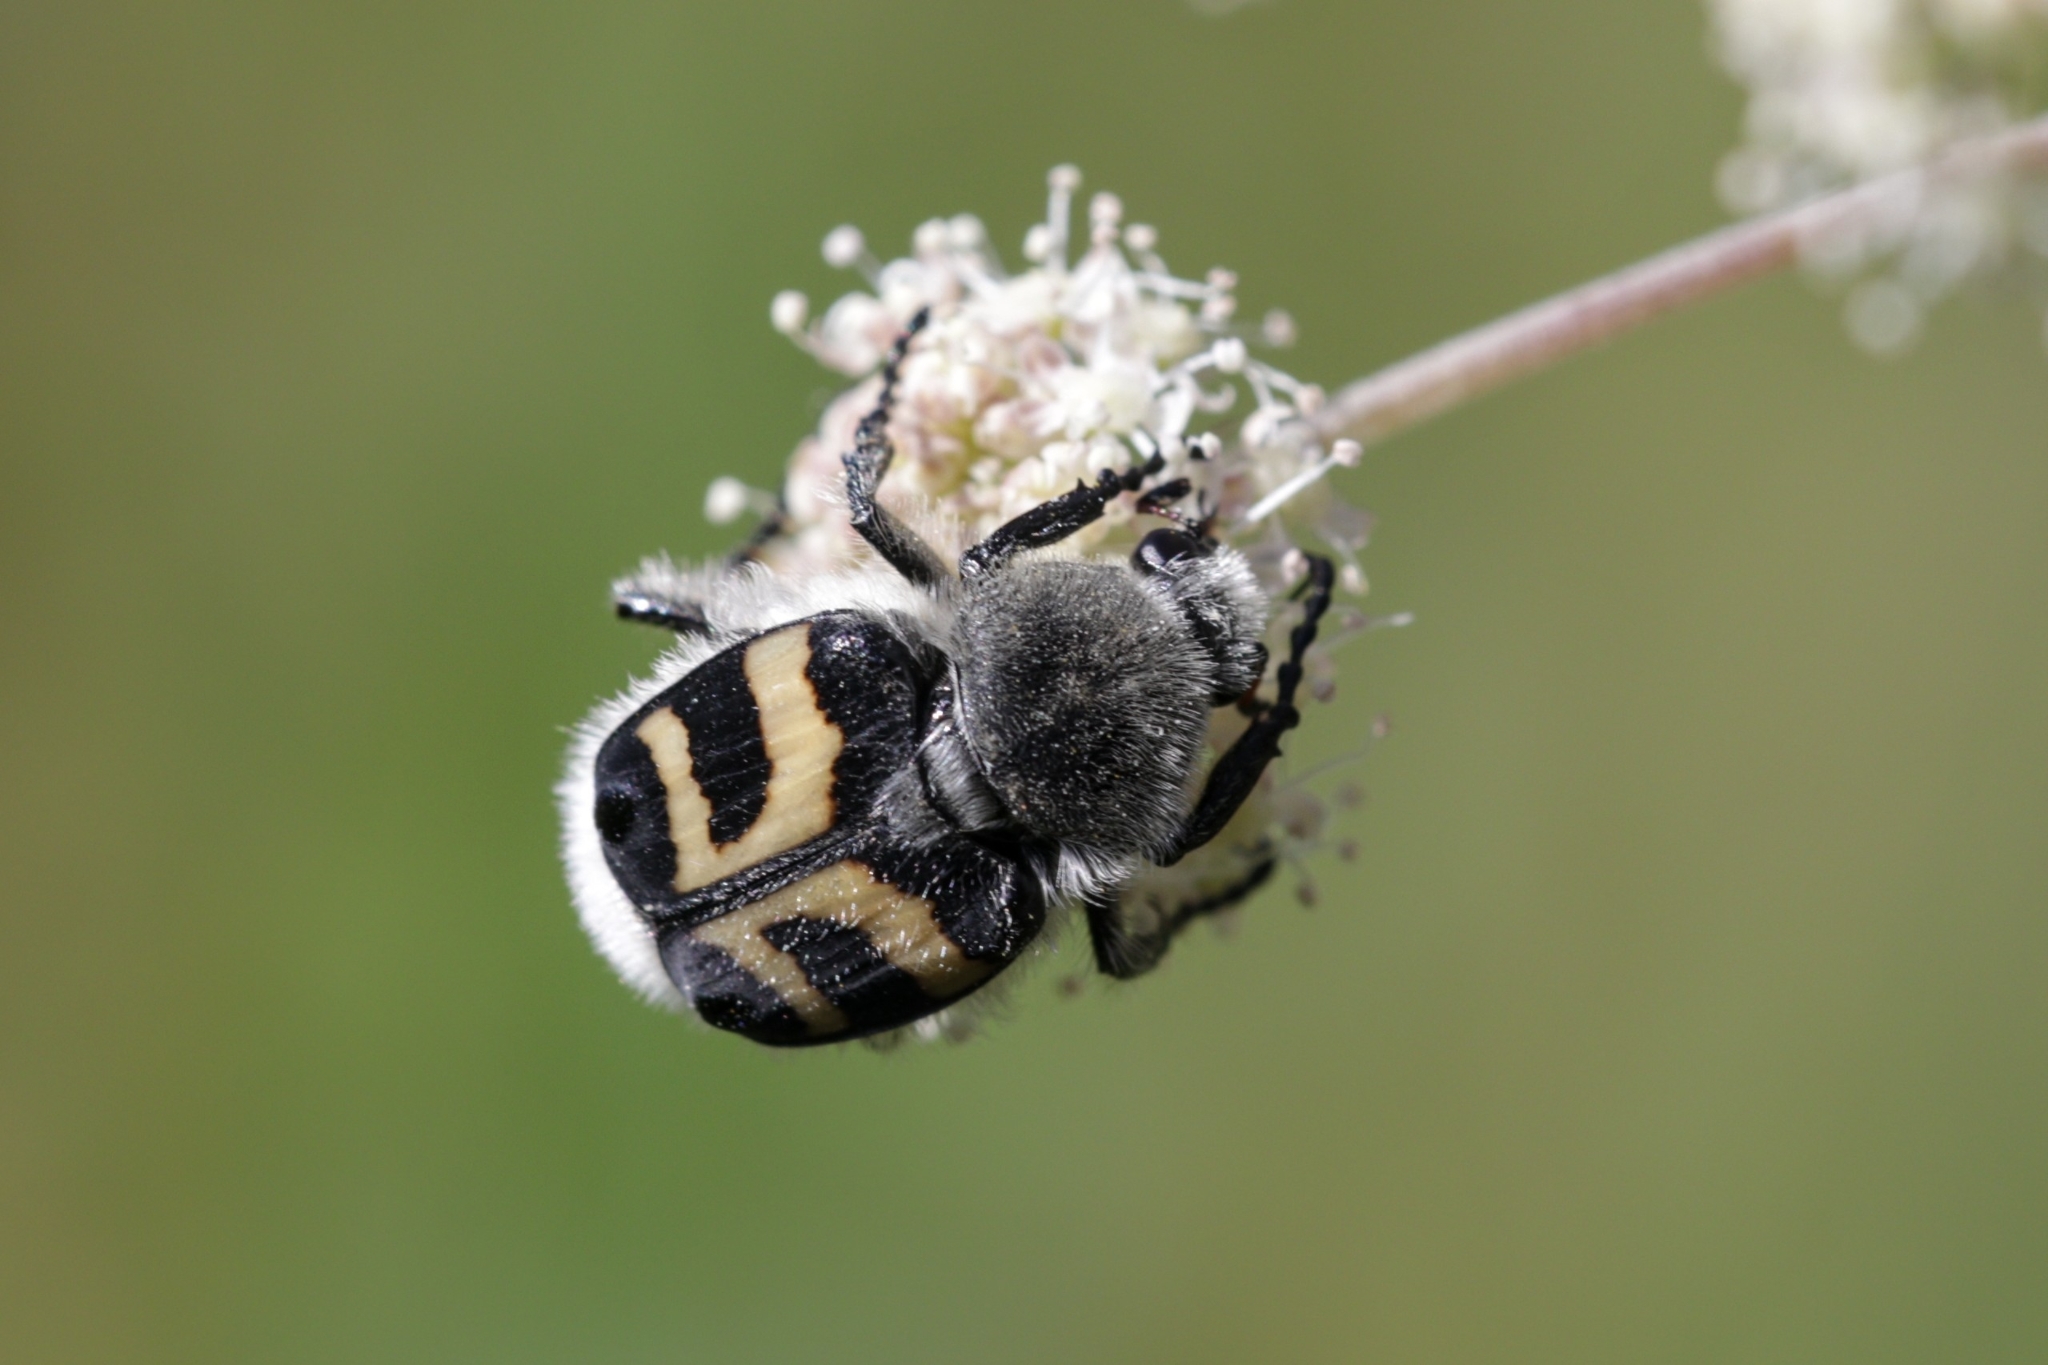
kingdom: Animalia
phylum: Arthropoda
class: Insecta
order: Coleoptera
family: Scarabaeidae
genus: Trichius
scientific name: Trichius fasciatus
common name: Bee beetle
